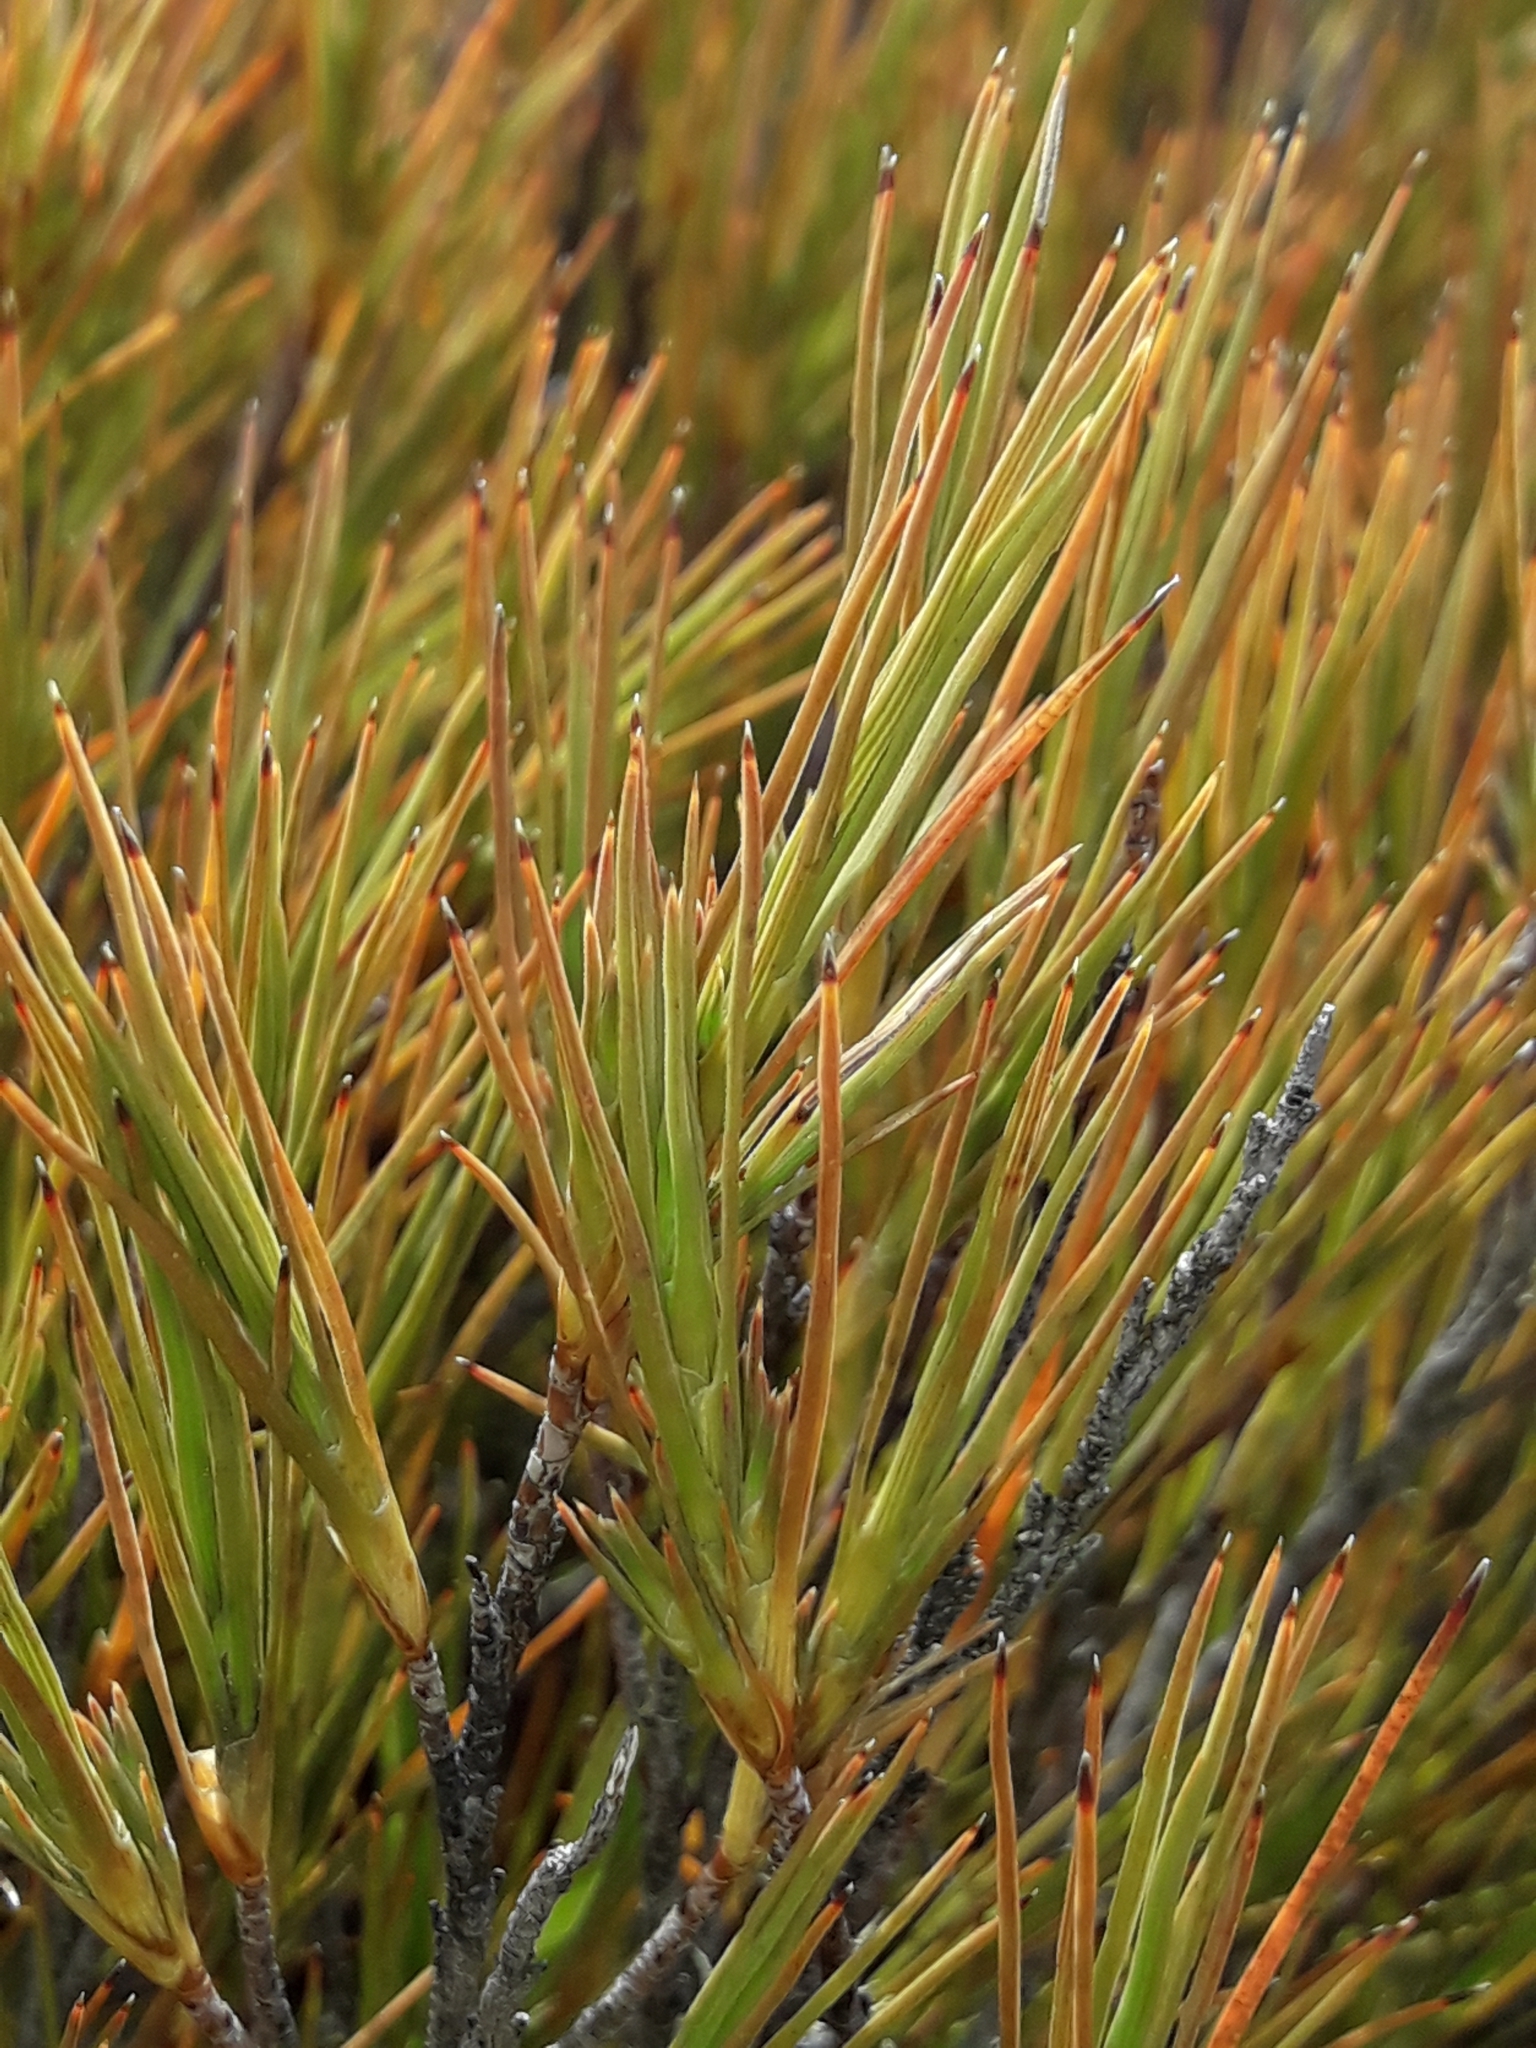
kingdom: Plantae
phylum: Tracheophyta
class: Magnoliopsida
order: Ericales
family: Ericaceae
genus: Dracophyllum
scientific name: Dracophyllum rosmarinifolium
